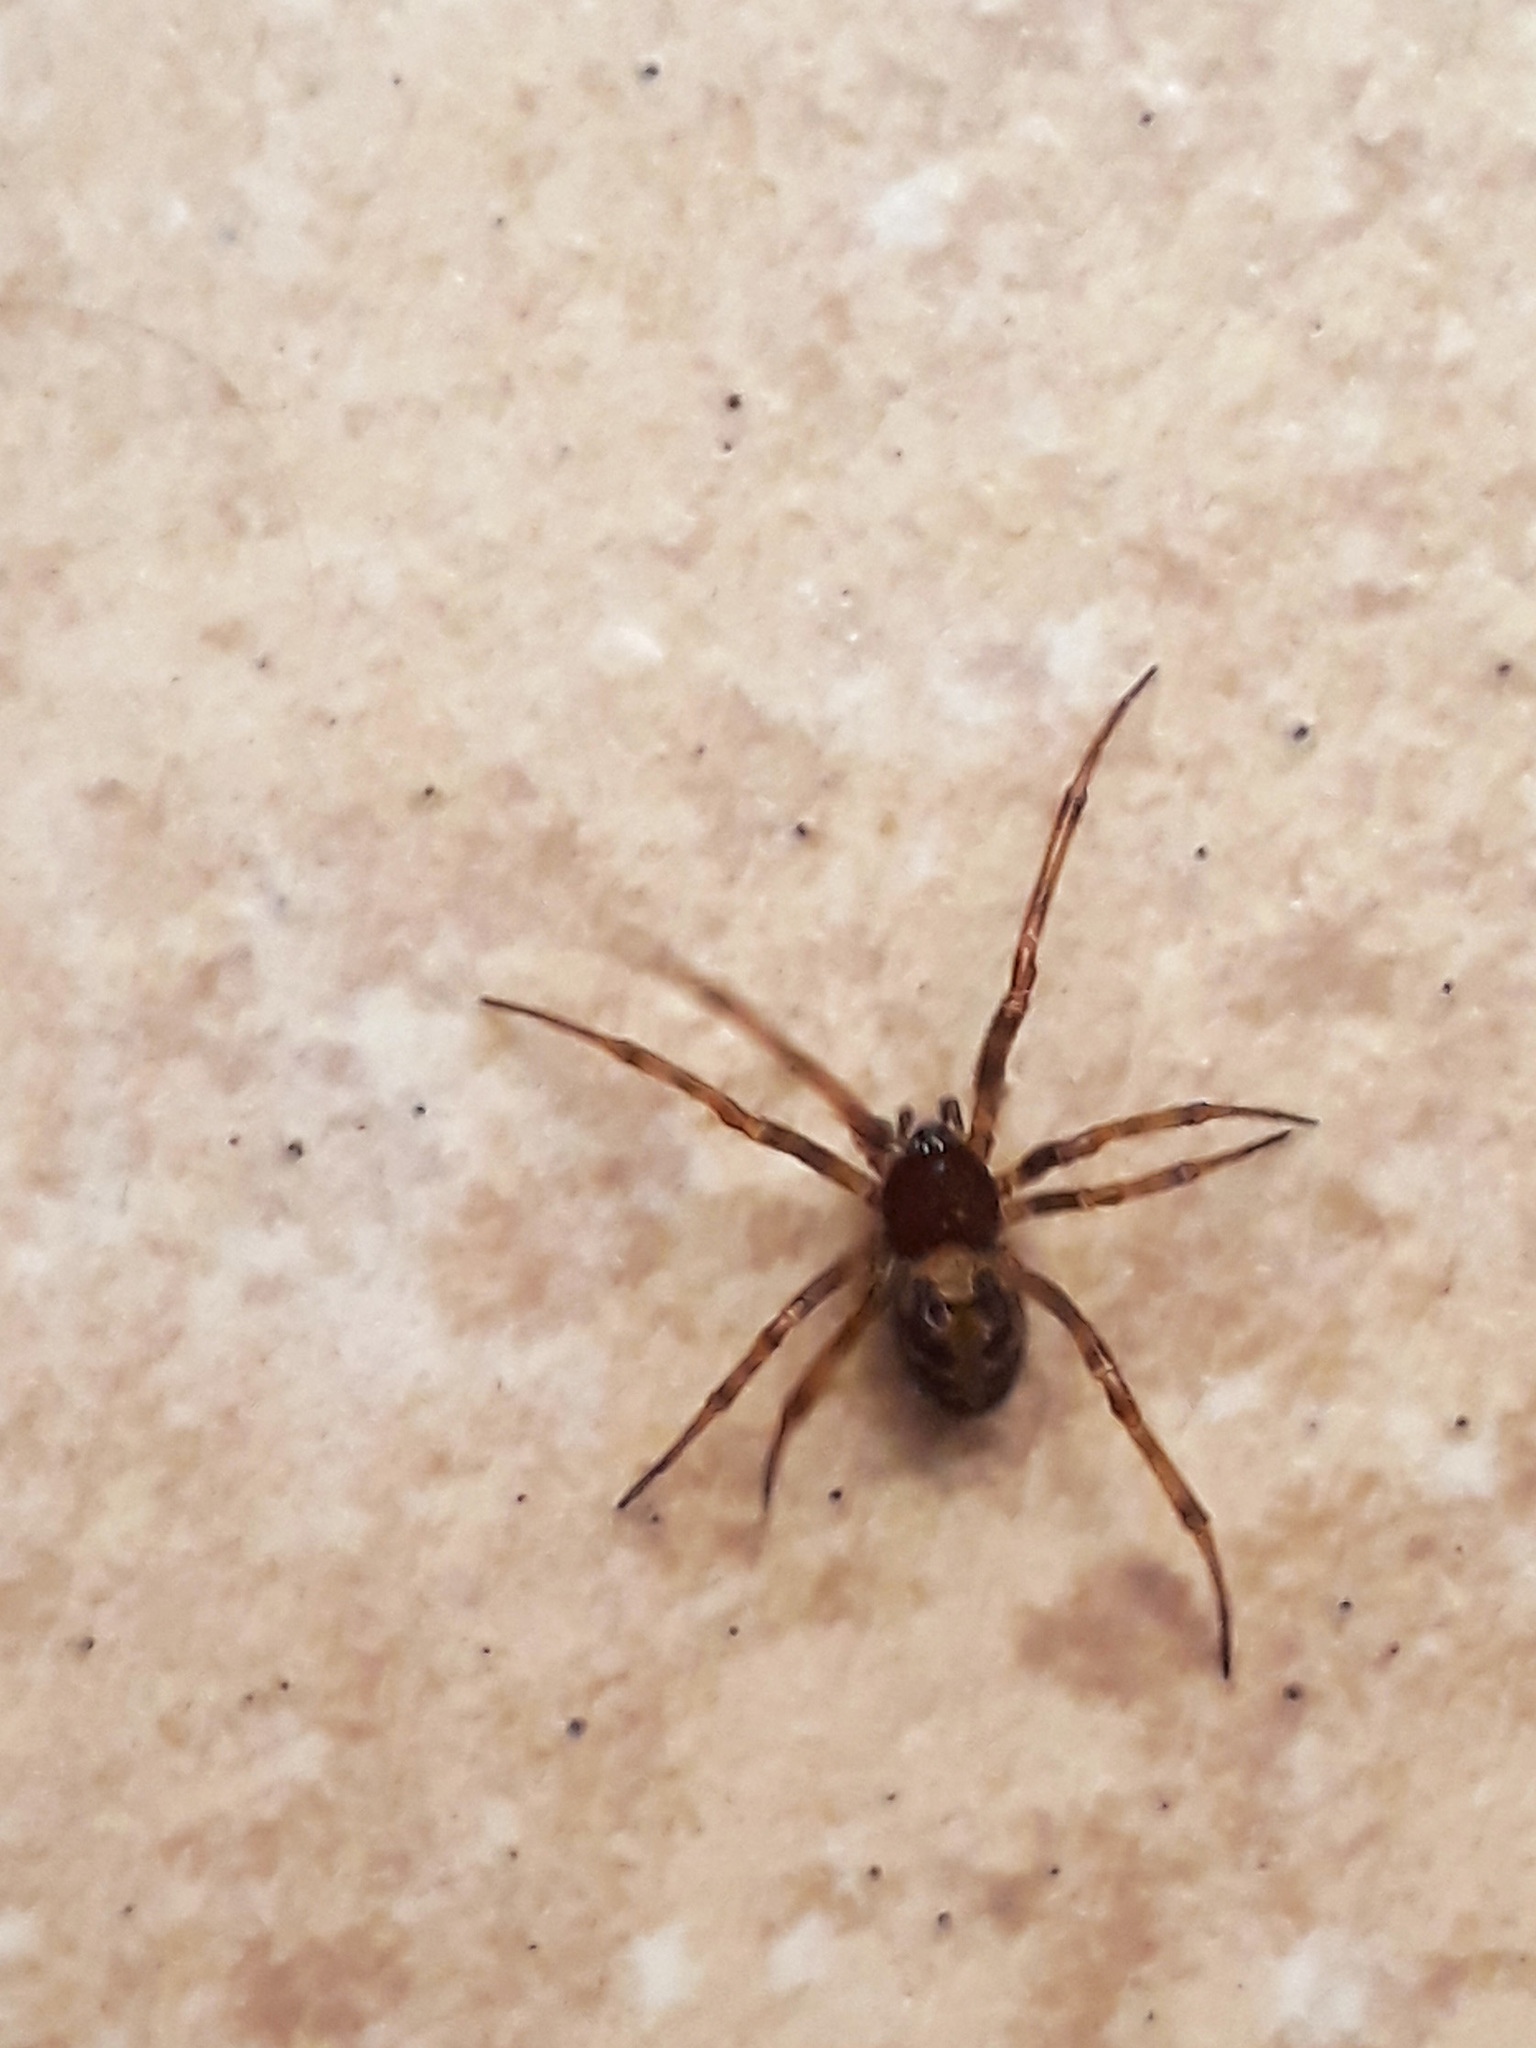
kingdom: Animalia
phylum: Arthropoda
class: Arachnida
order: Araneae
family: Theridiidae
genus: Steatoda
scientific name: Steatoda triangulosa
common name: Triangulate bud spider
